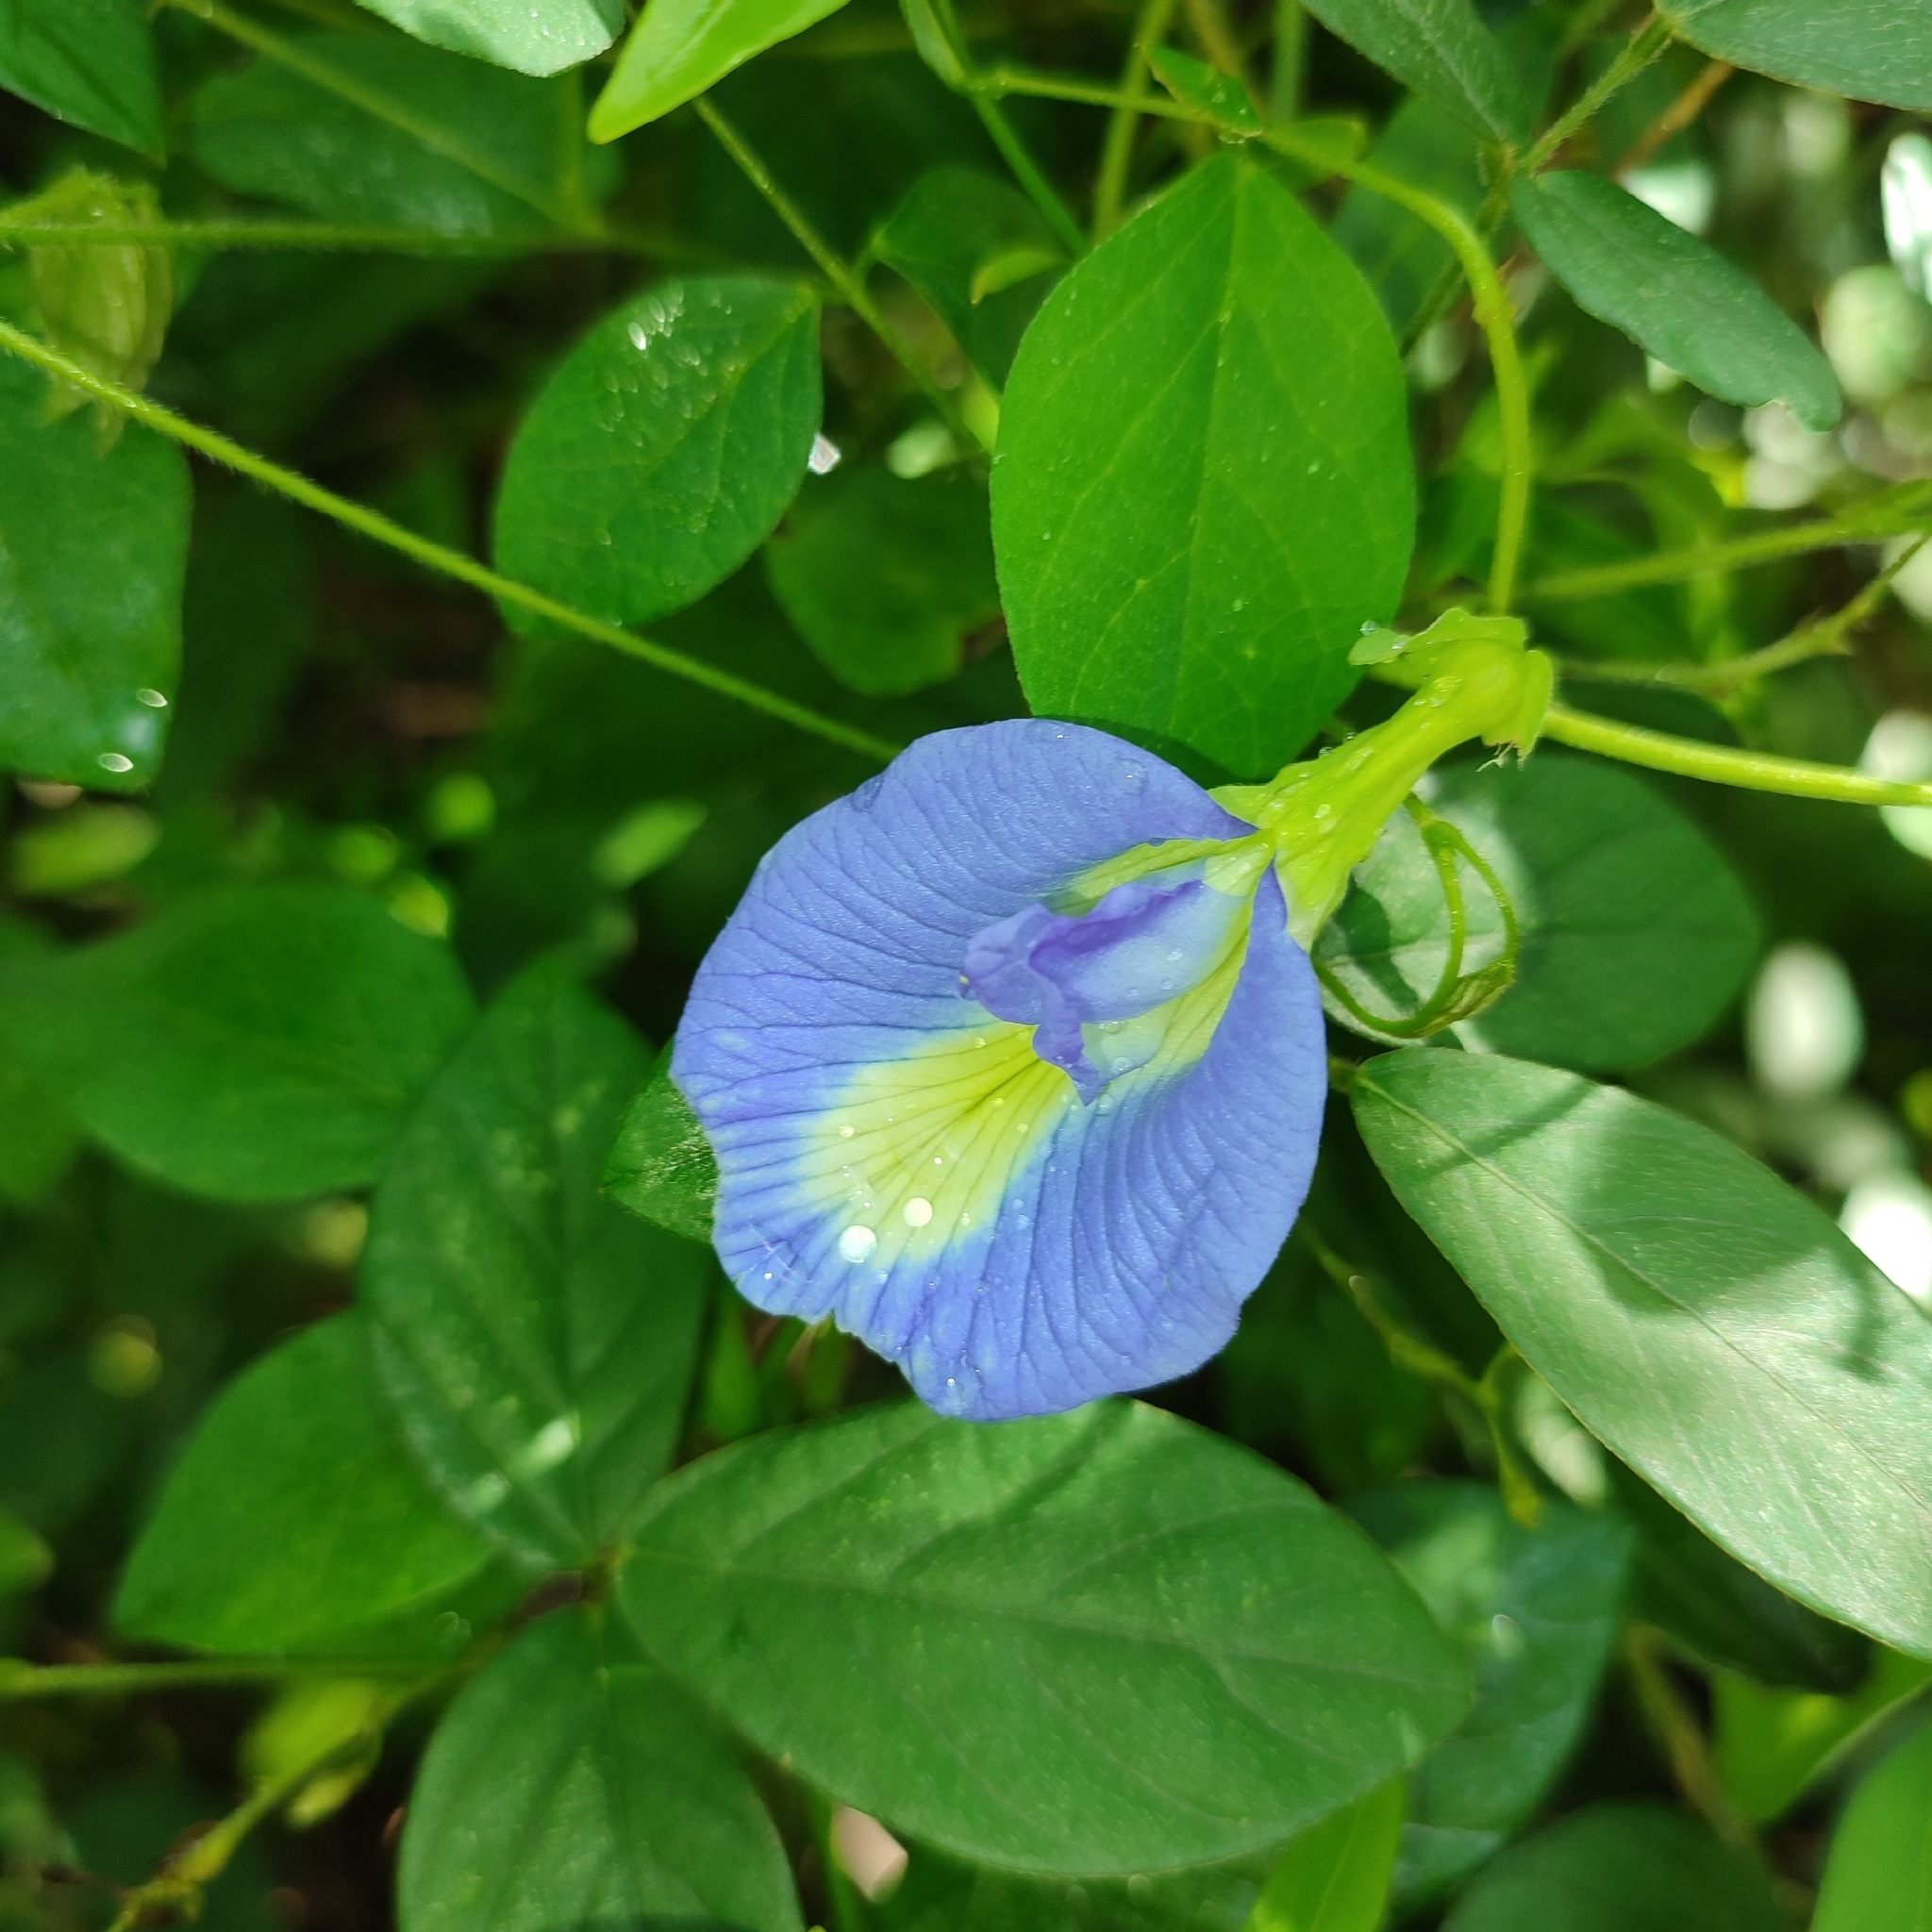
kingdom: Plantae
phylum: Tracheophyta
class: Magnoliopsida
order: Fabales
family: Fabaceae
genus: Clitoria
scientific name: Clitoria ternatea
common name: Asian pigeonwings
